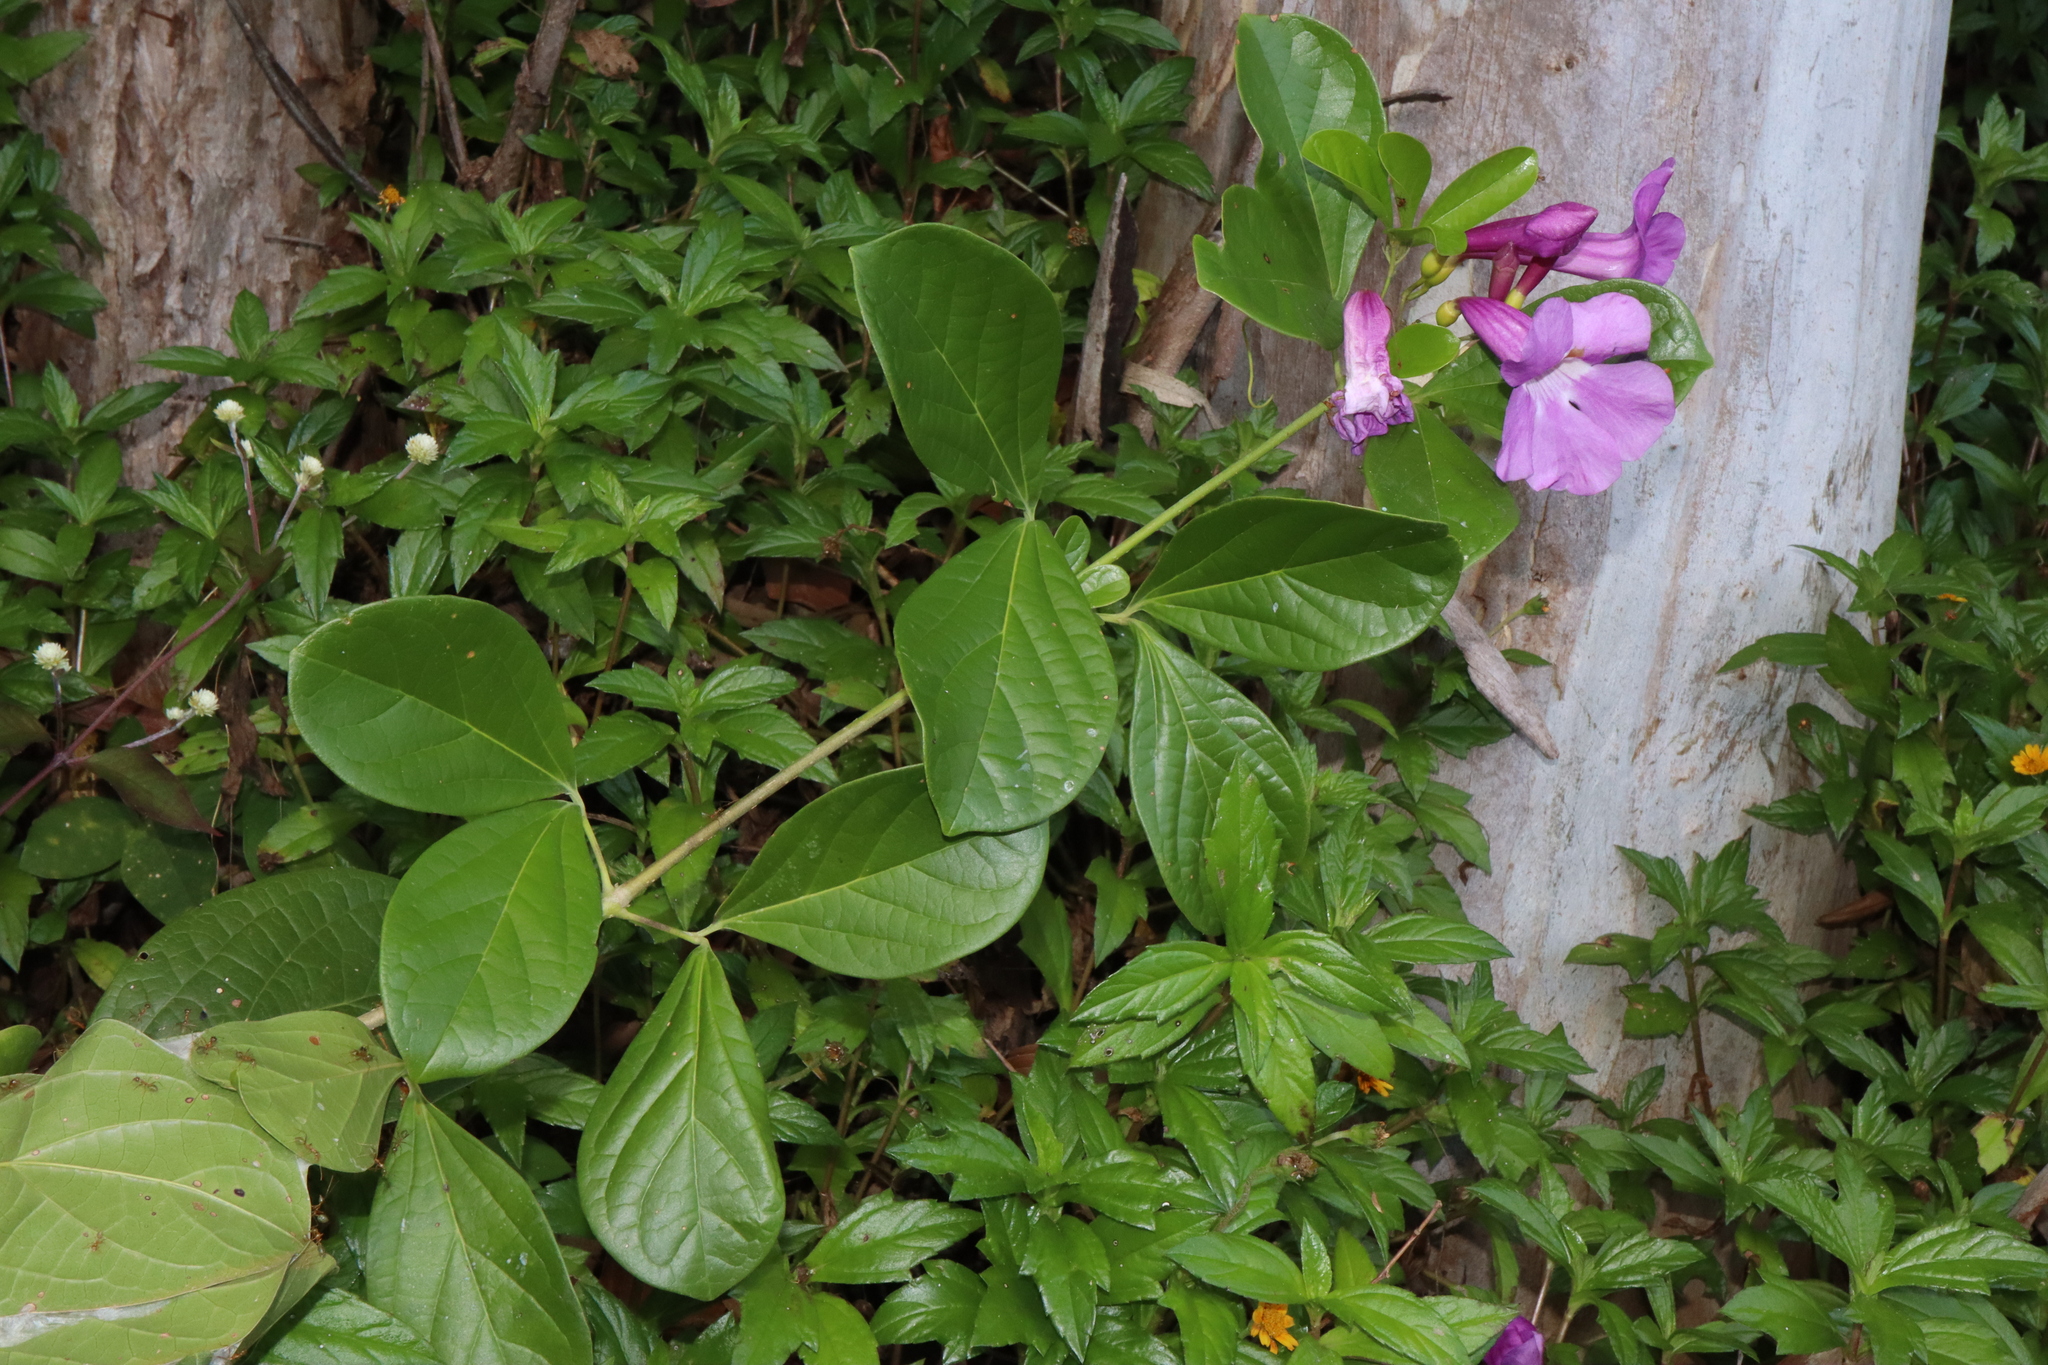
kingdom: Plantae
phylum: Tracheophyta
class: Magnoliopsida
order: Lamiales
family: Bignoniaceae
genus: Bignonia
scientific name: Bignonia magnifica
